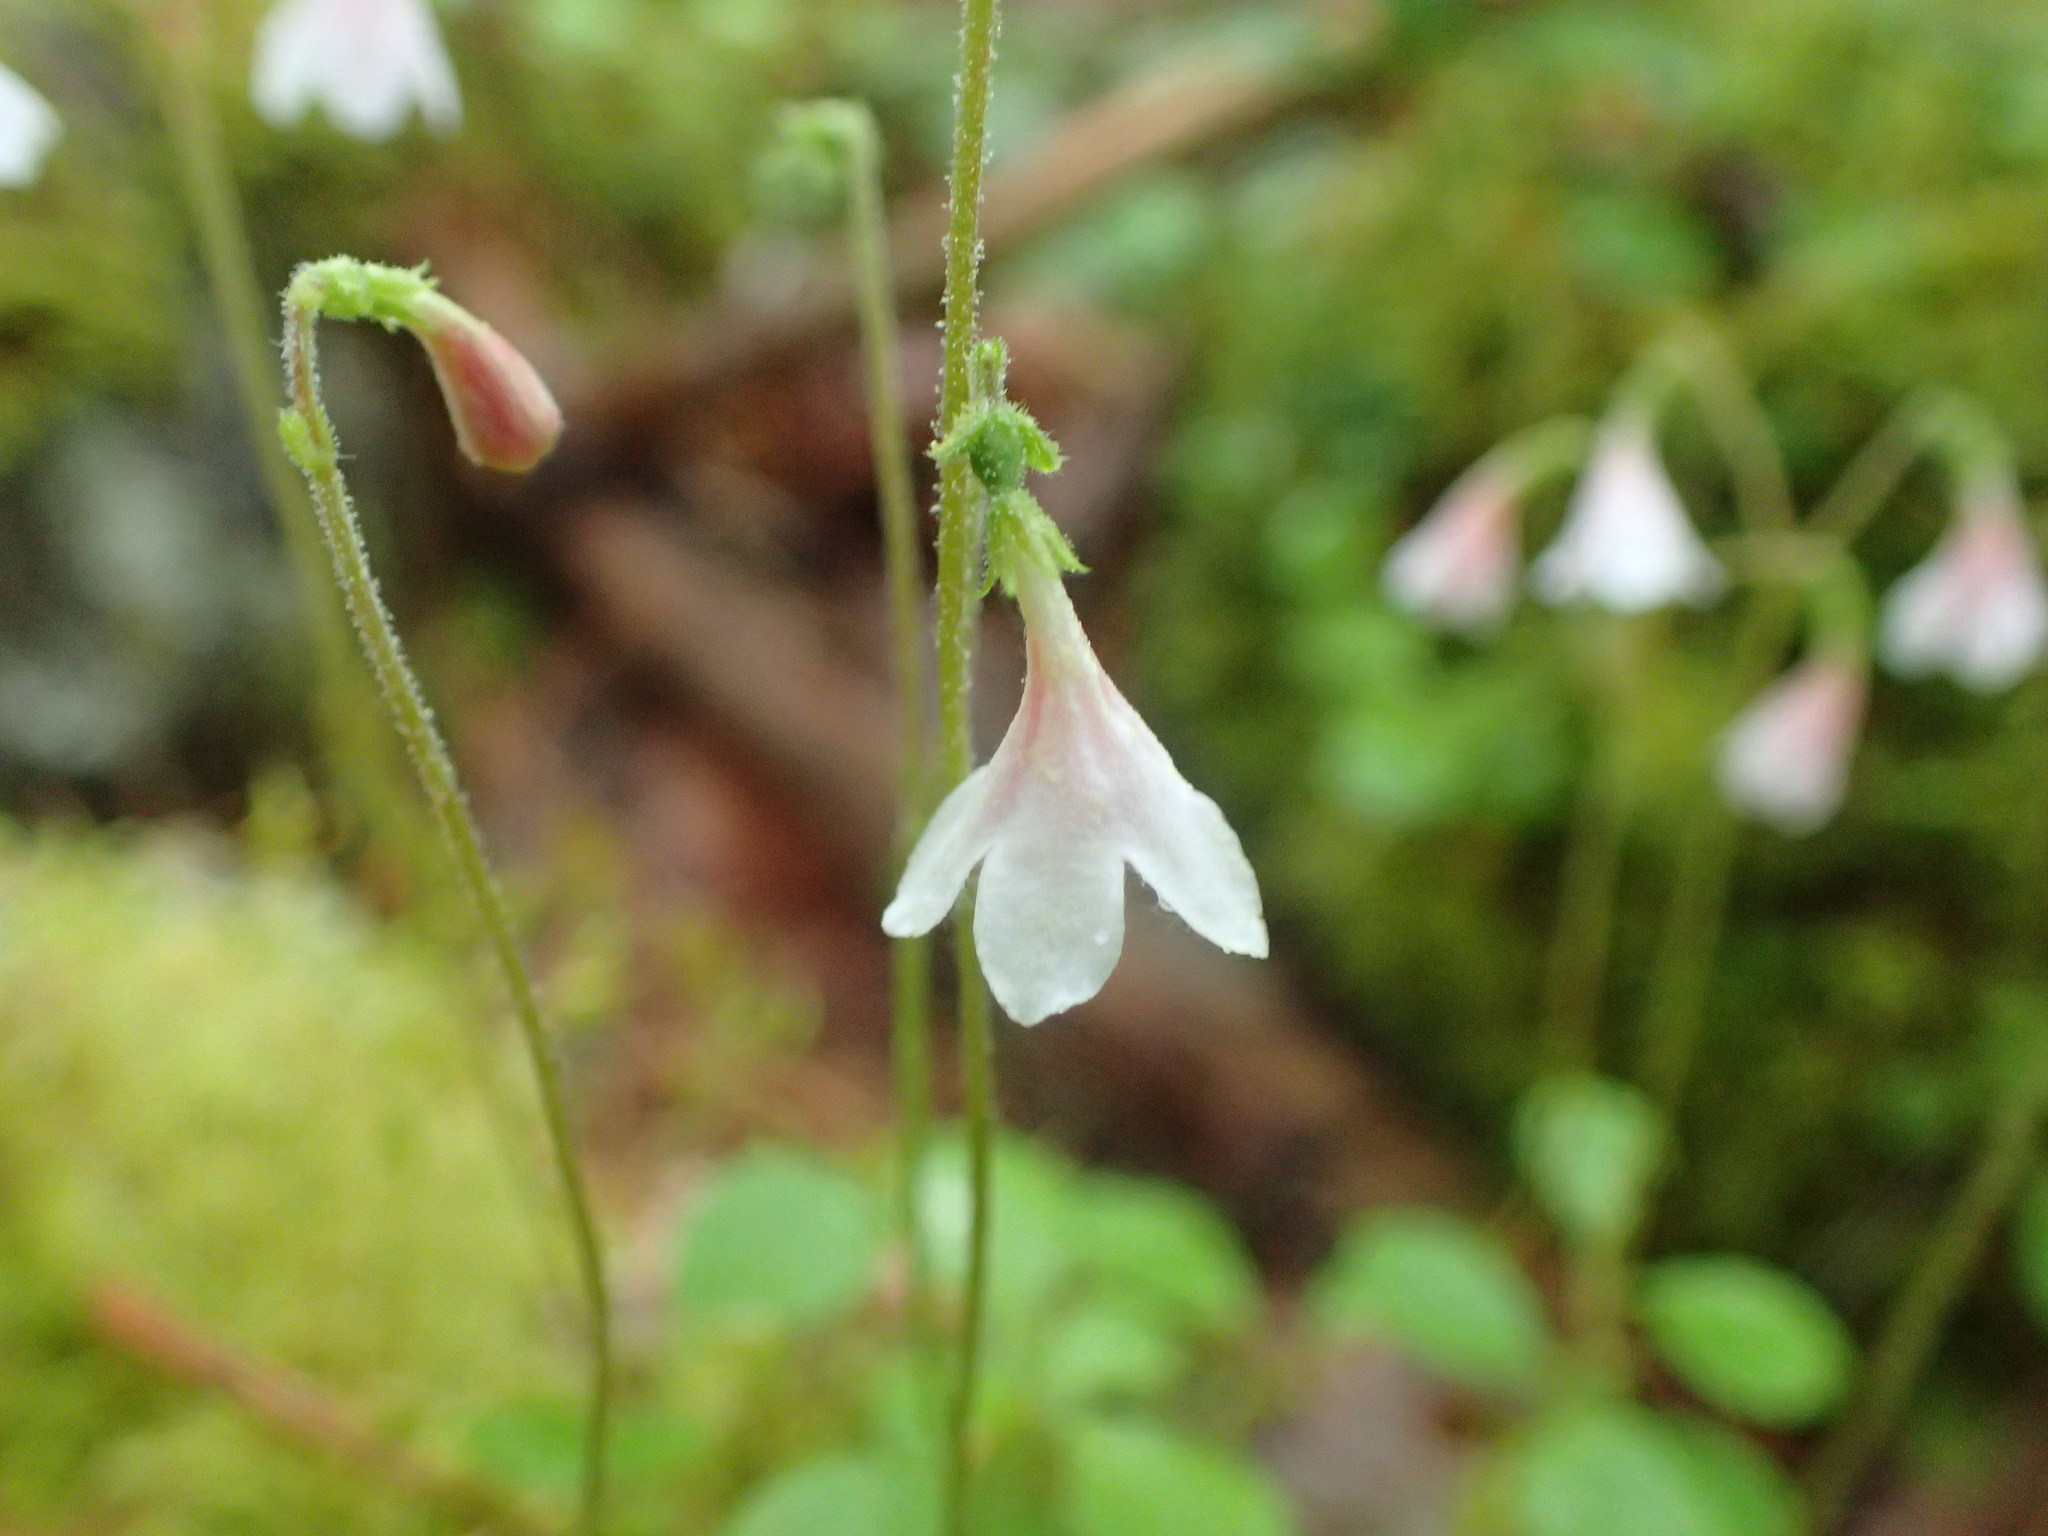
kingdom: Plantae
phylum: Tracheophyta
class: Magnoliopsida
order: Dipsacales
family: Caprifoliaceae
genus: Linnaea
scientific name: Linnaea borealis
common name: Twinflower
